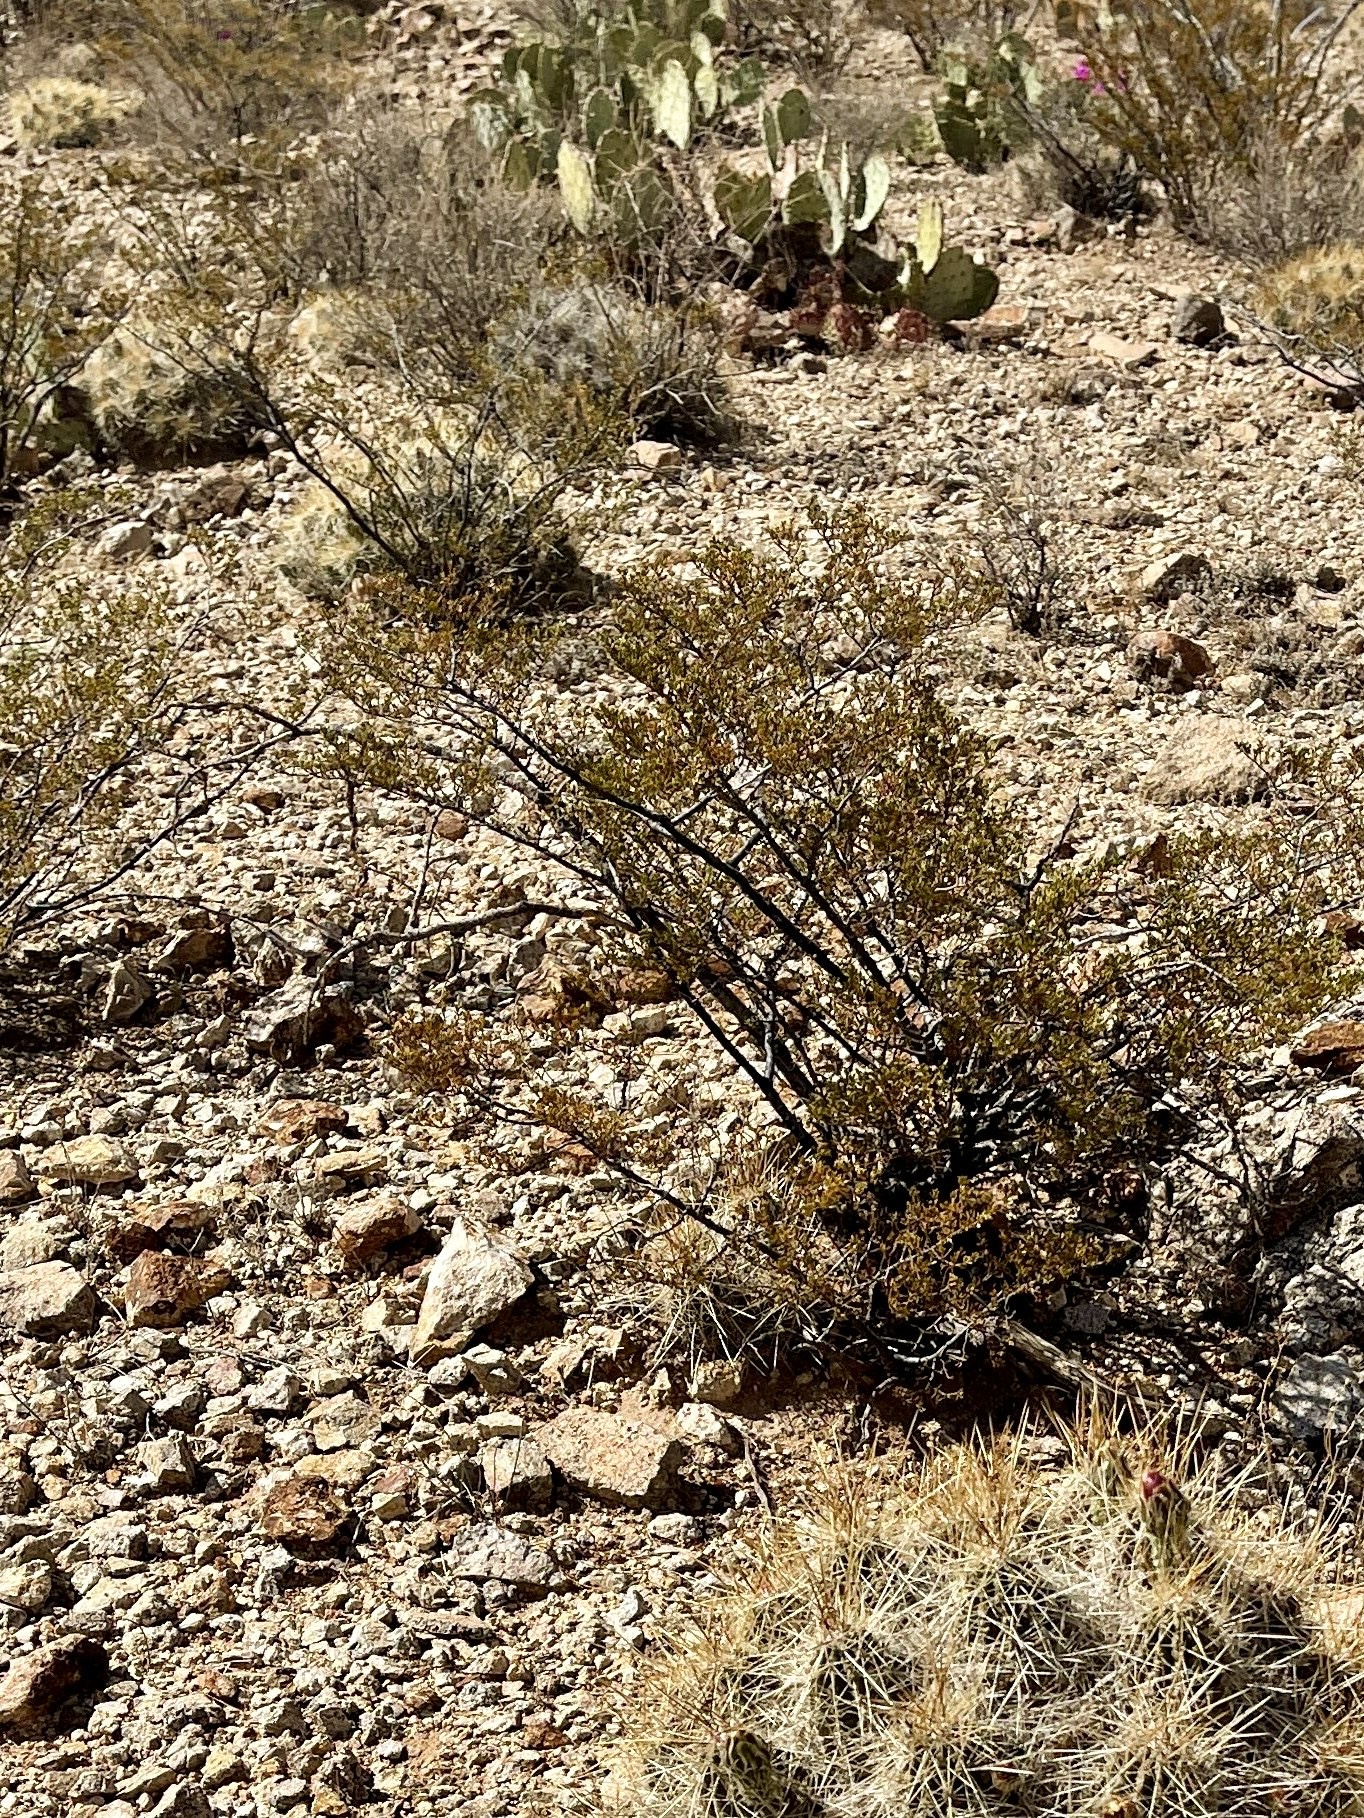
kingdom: Plantae
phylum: Tracheophyta
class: Magnoliopsida
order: Zygophyllales
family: Zygophyllaceae
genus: Larrea
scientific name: Larrea tridentata
